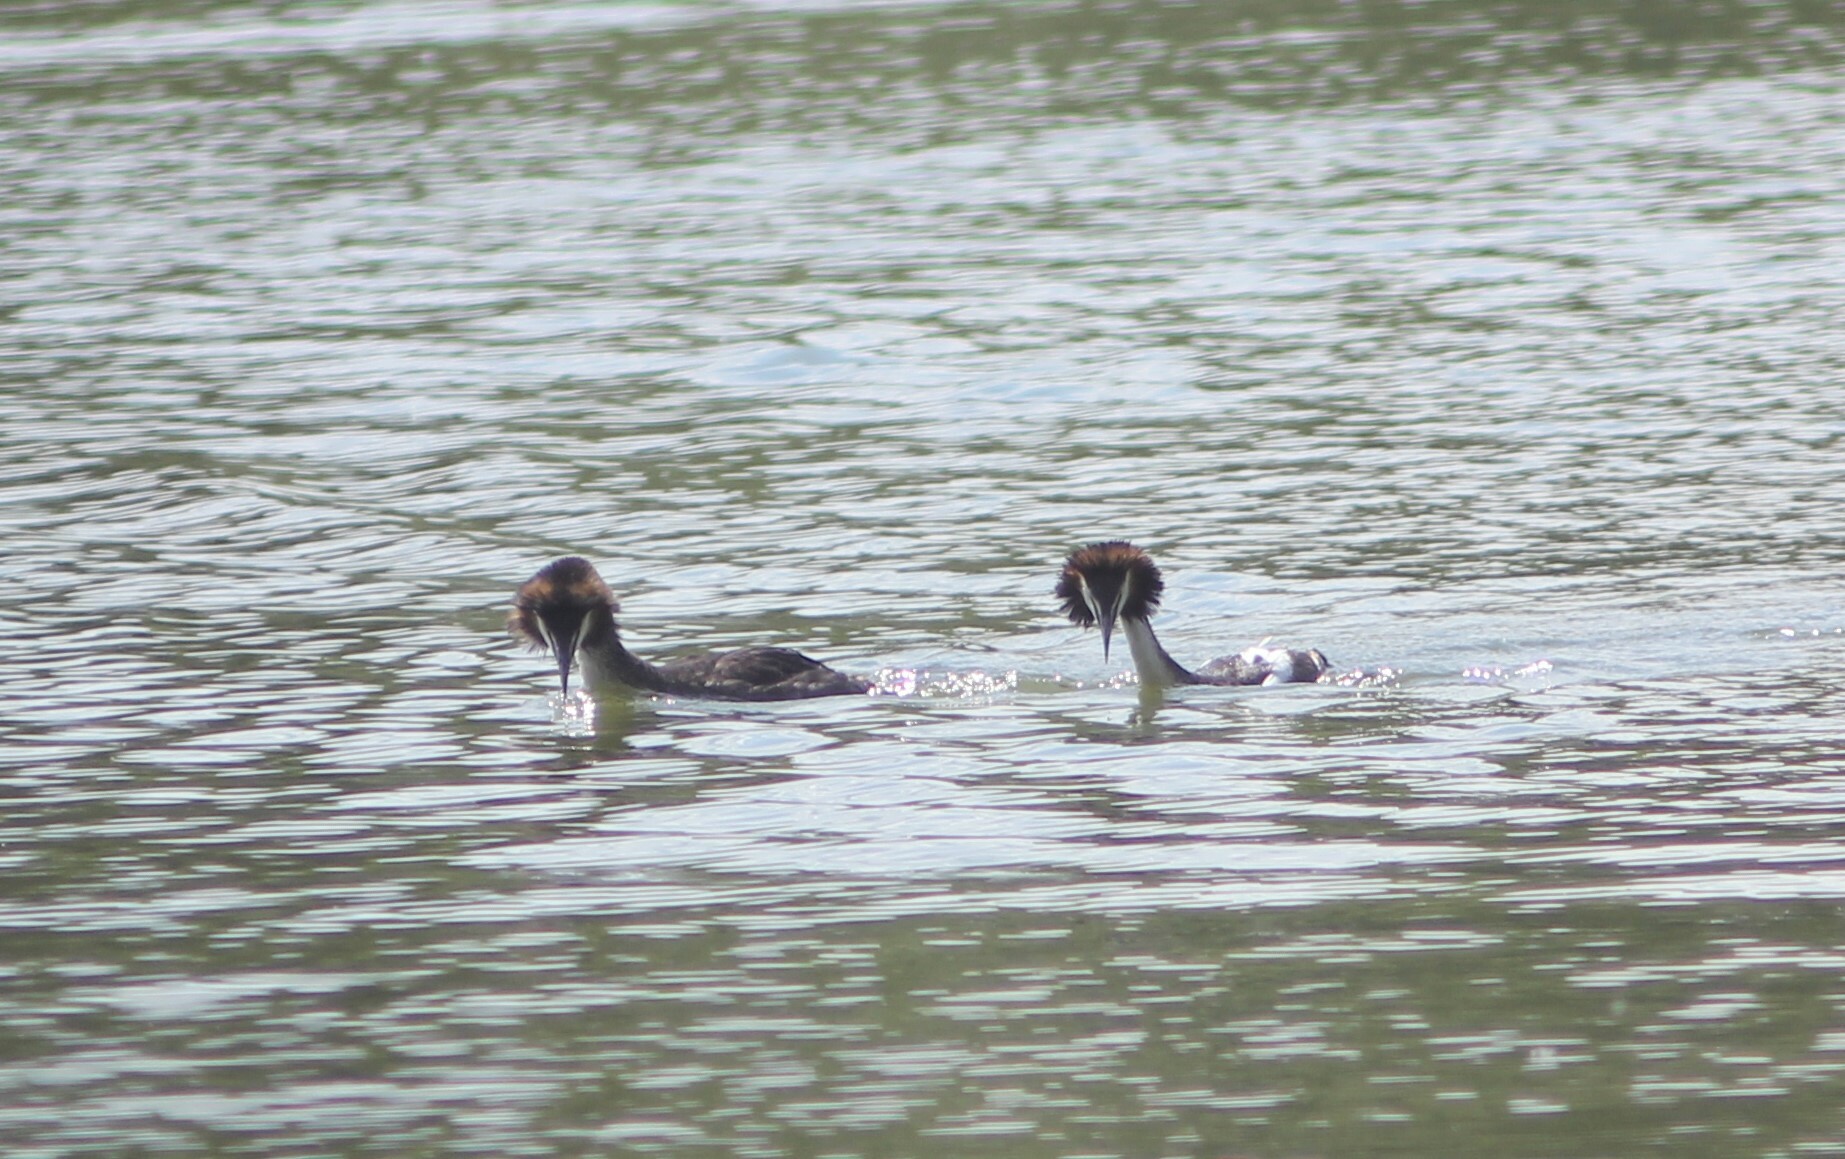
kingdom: Animalia
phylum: Chordata
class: Aves
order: Podicipediformes
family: Podicipedidae
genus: Podiceps
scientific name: Podiceps cristatus
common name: Great crested grebe
